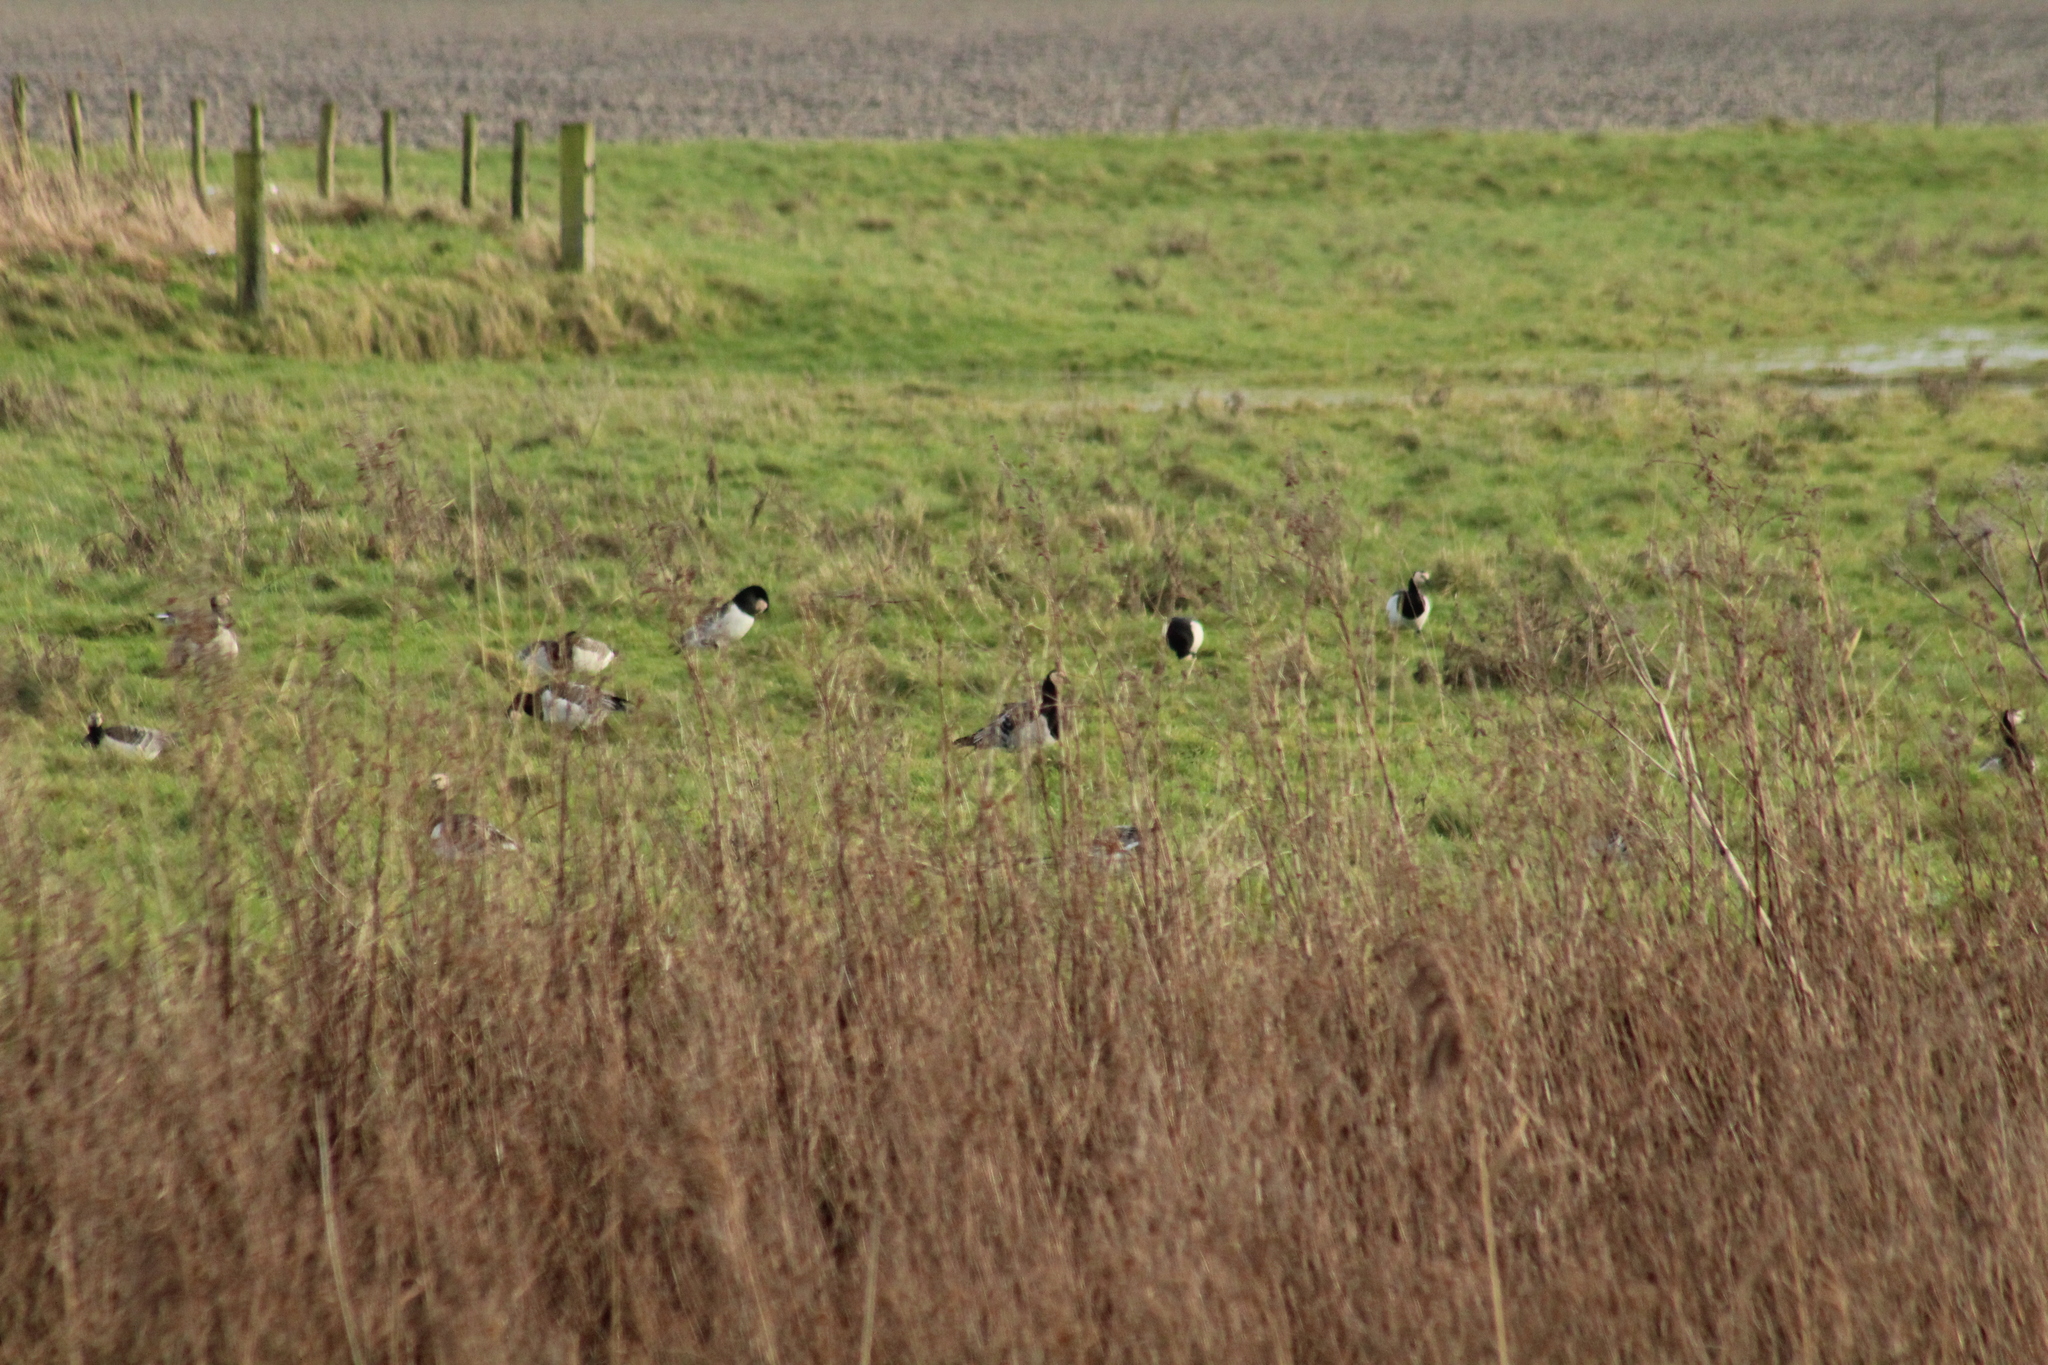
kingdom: Animalia
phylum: Chordata
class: Aves
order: Anseriformes
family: Anatidae
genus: Branta
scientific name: Branta leucopsis
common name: Barnacle goose
